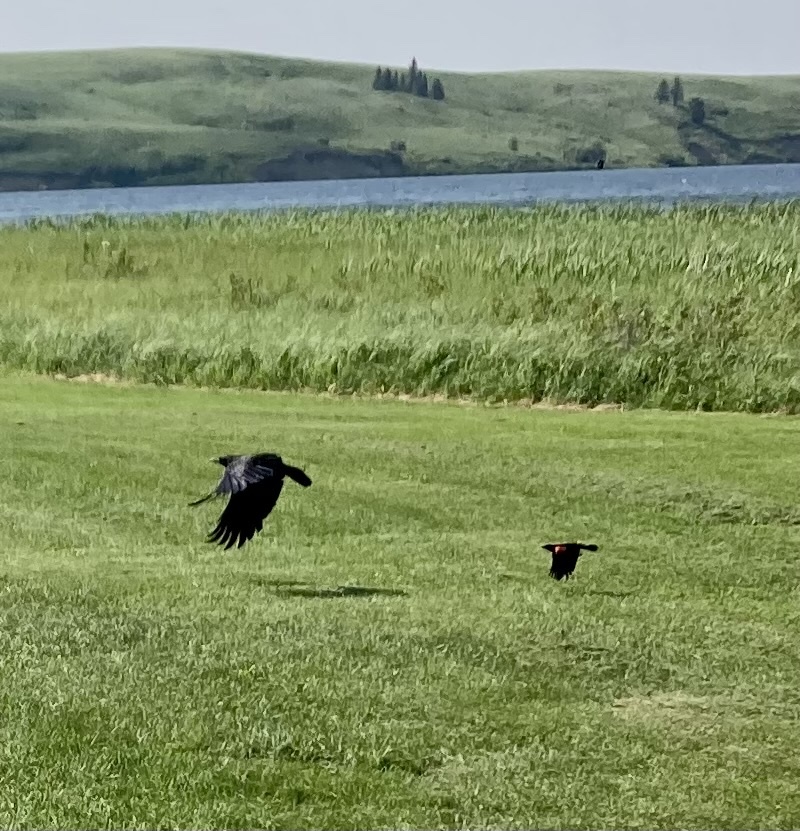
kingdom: Animalia
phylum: Chordata
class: Aves
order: Passeriformes
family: Corvidae
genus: Corvus
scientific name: Corvus brachyrhynchos
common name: American crow
